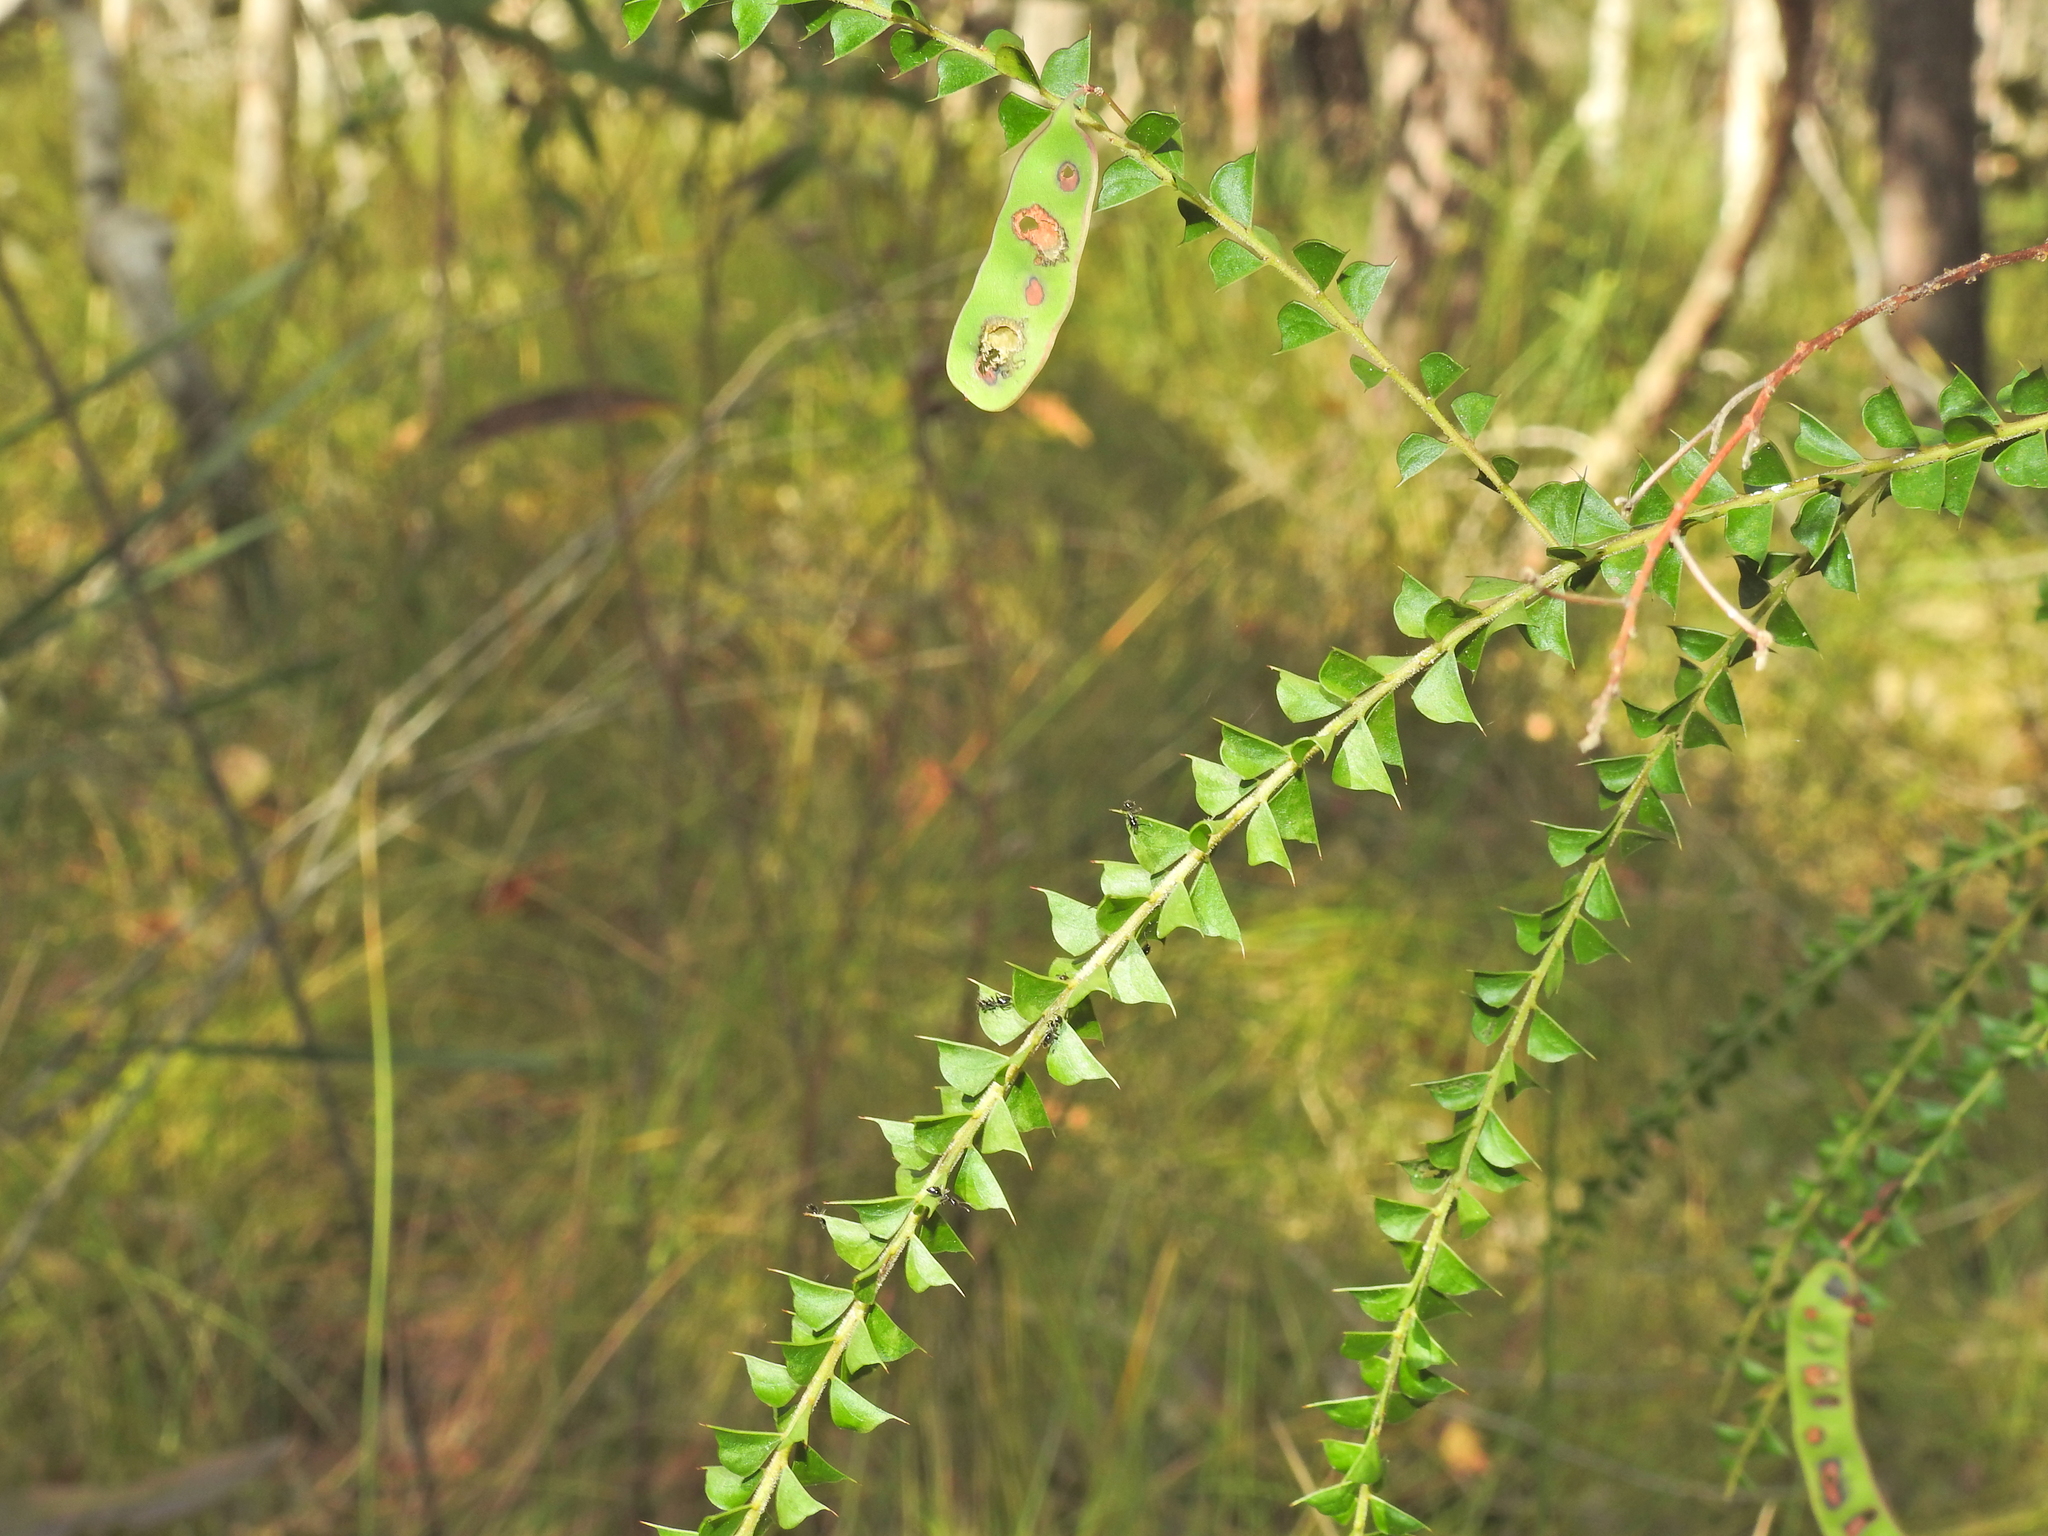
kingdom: Plantae
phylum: Tracheophyta
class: Magnoliopsida
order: Fabales
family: Fabaceae
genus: Acacia
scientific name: Acacia hubbardiana
